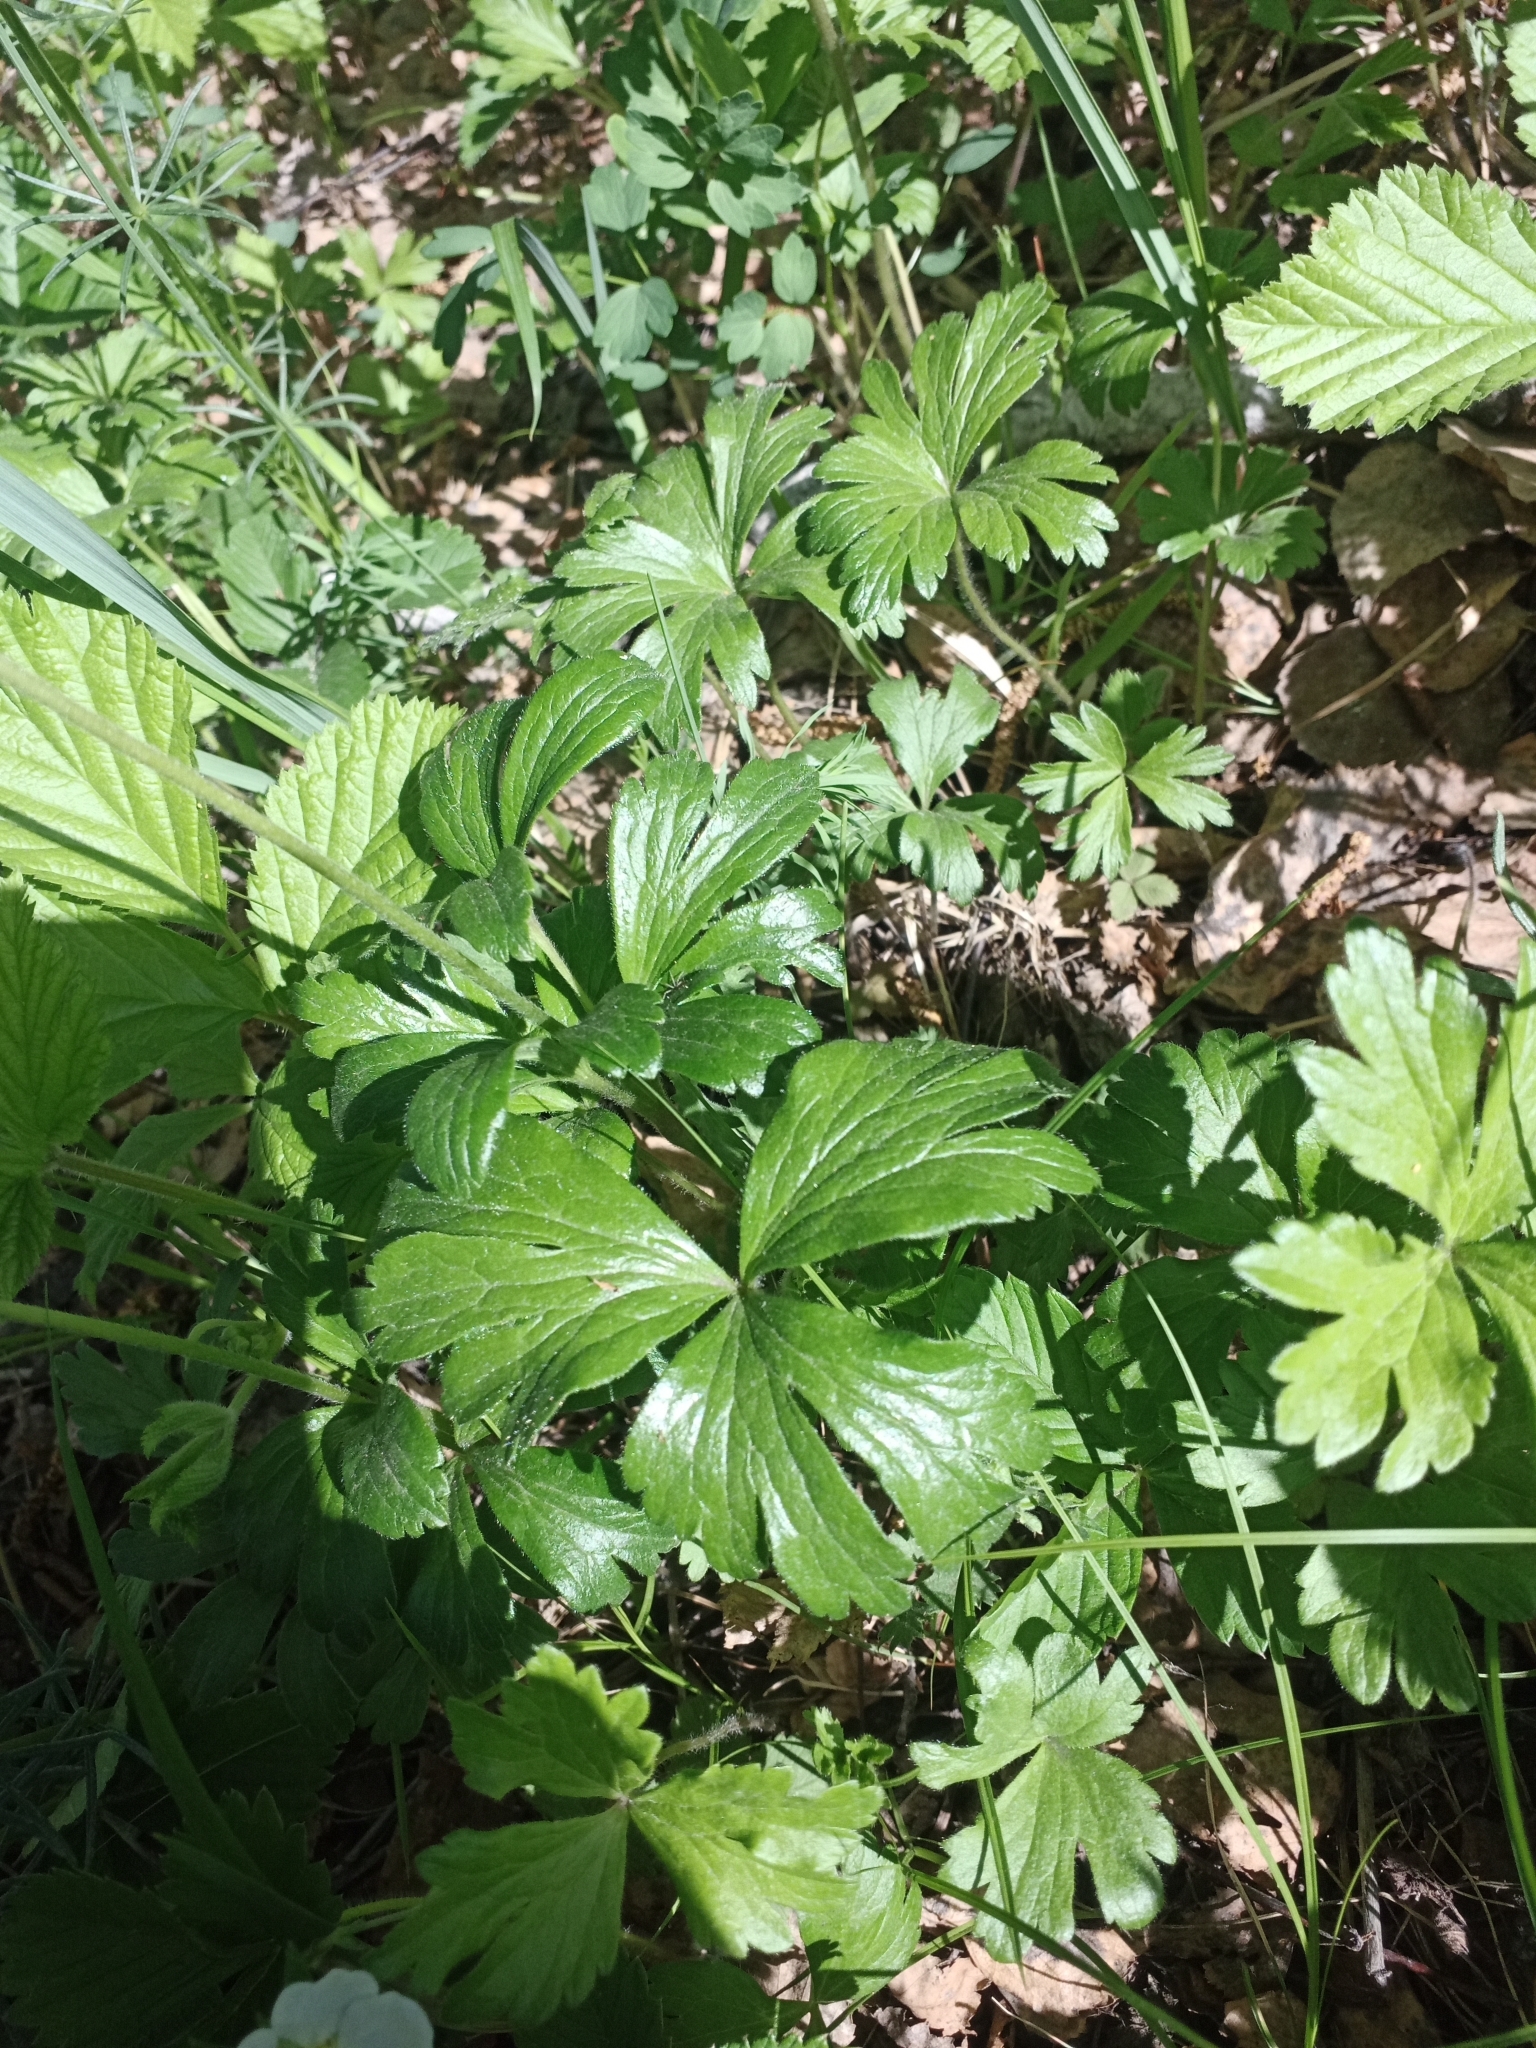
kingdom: Plantae
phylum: Tracheophyta
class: Magnoliopsida
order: Ranunculales
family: Ranunculaceae
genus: Anemone
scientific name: Anemone sylvestris
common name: Snowdrop anemone
